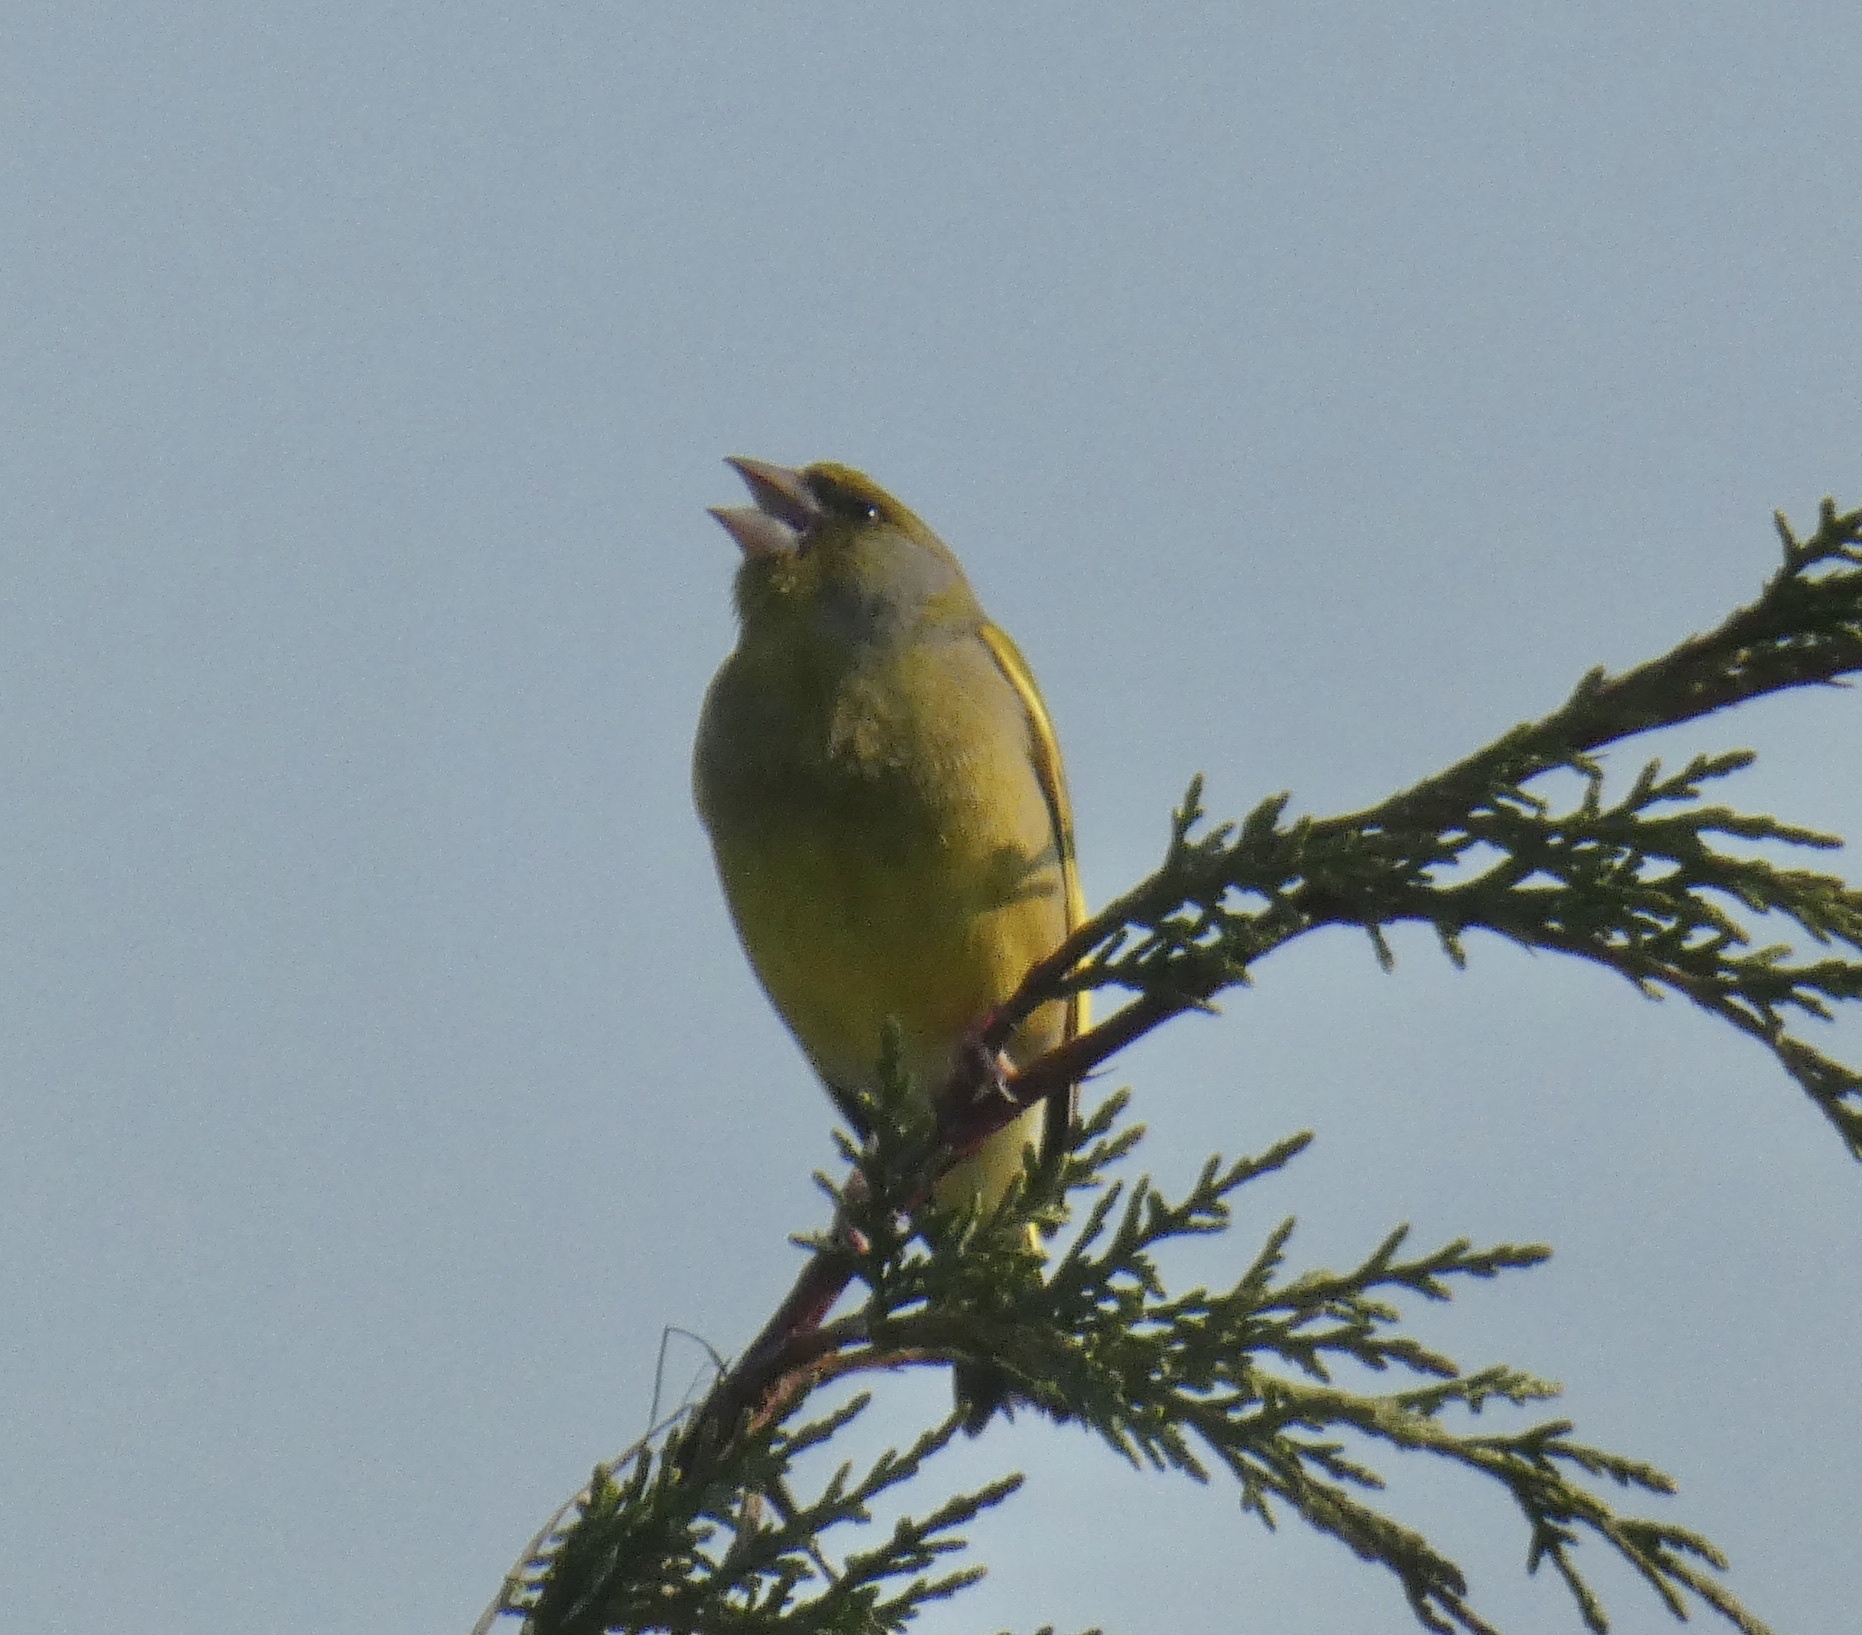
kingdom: Plantae
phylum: Tracheophyta
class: Liliopsida
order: Poales
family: Poaceae
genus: Chloris
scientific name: Chloris chloris
